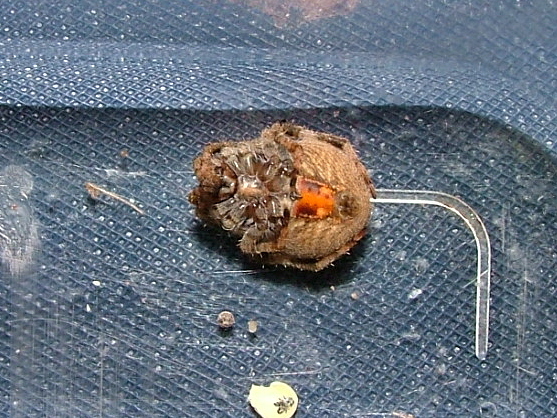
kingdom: Animalia
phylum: Arthropoda
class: Arachnida
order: Araneae
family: Araneidae
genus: Neoscona
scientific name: Neoscona triangula
